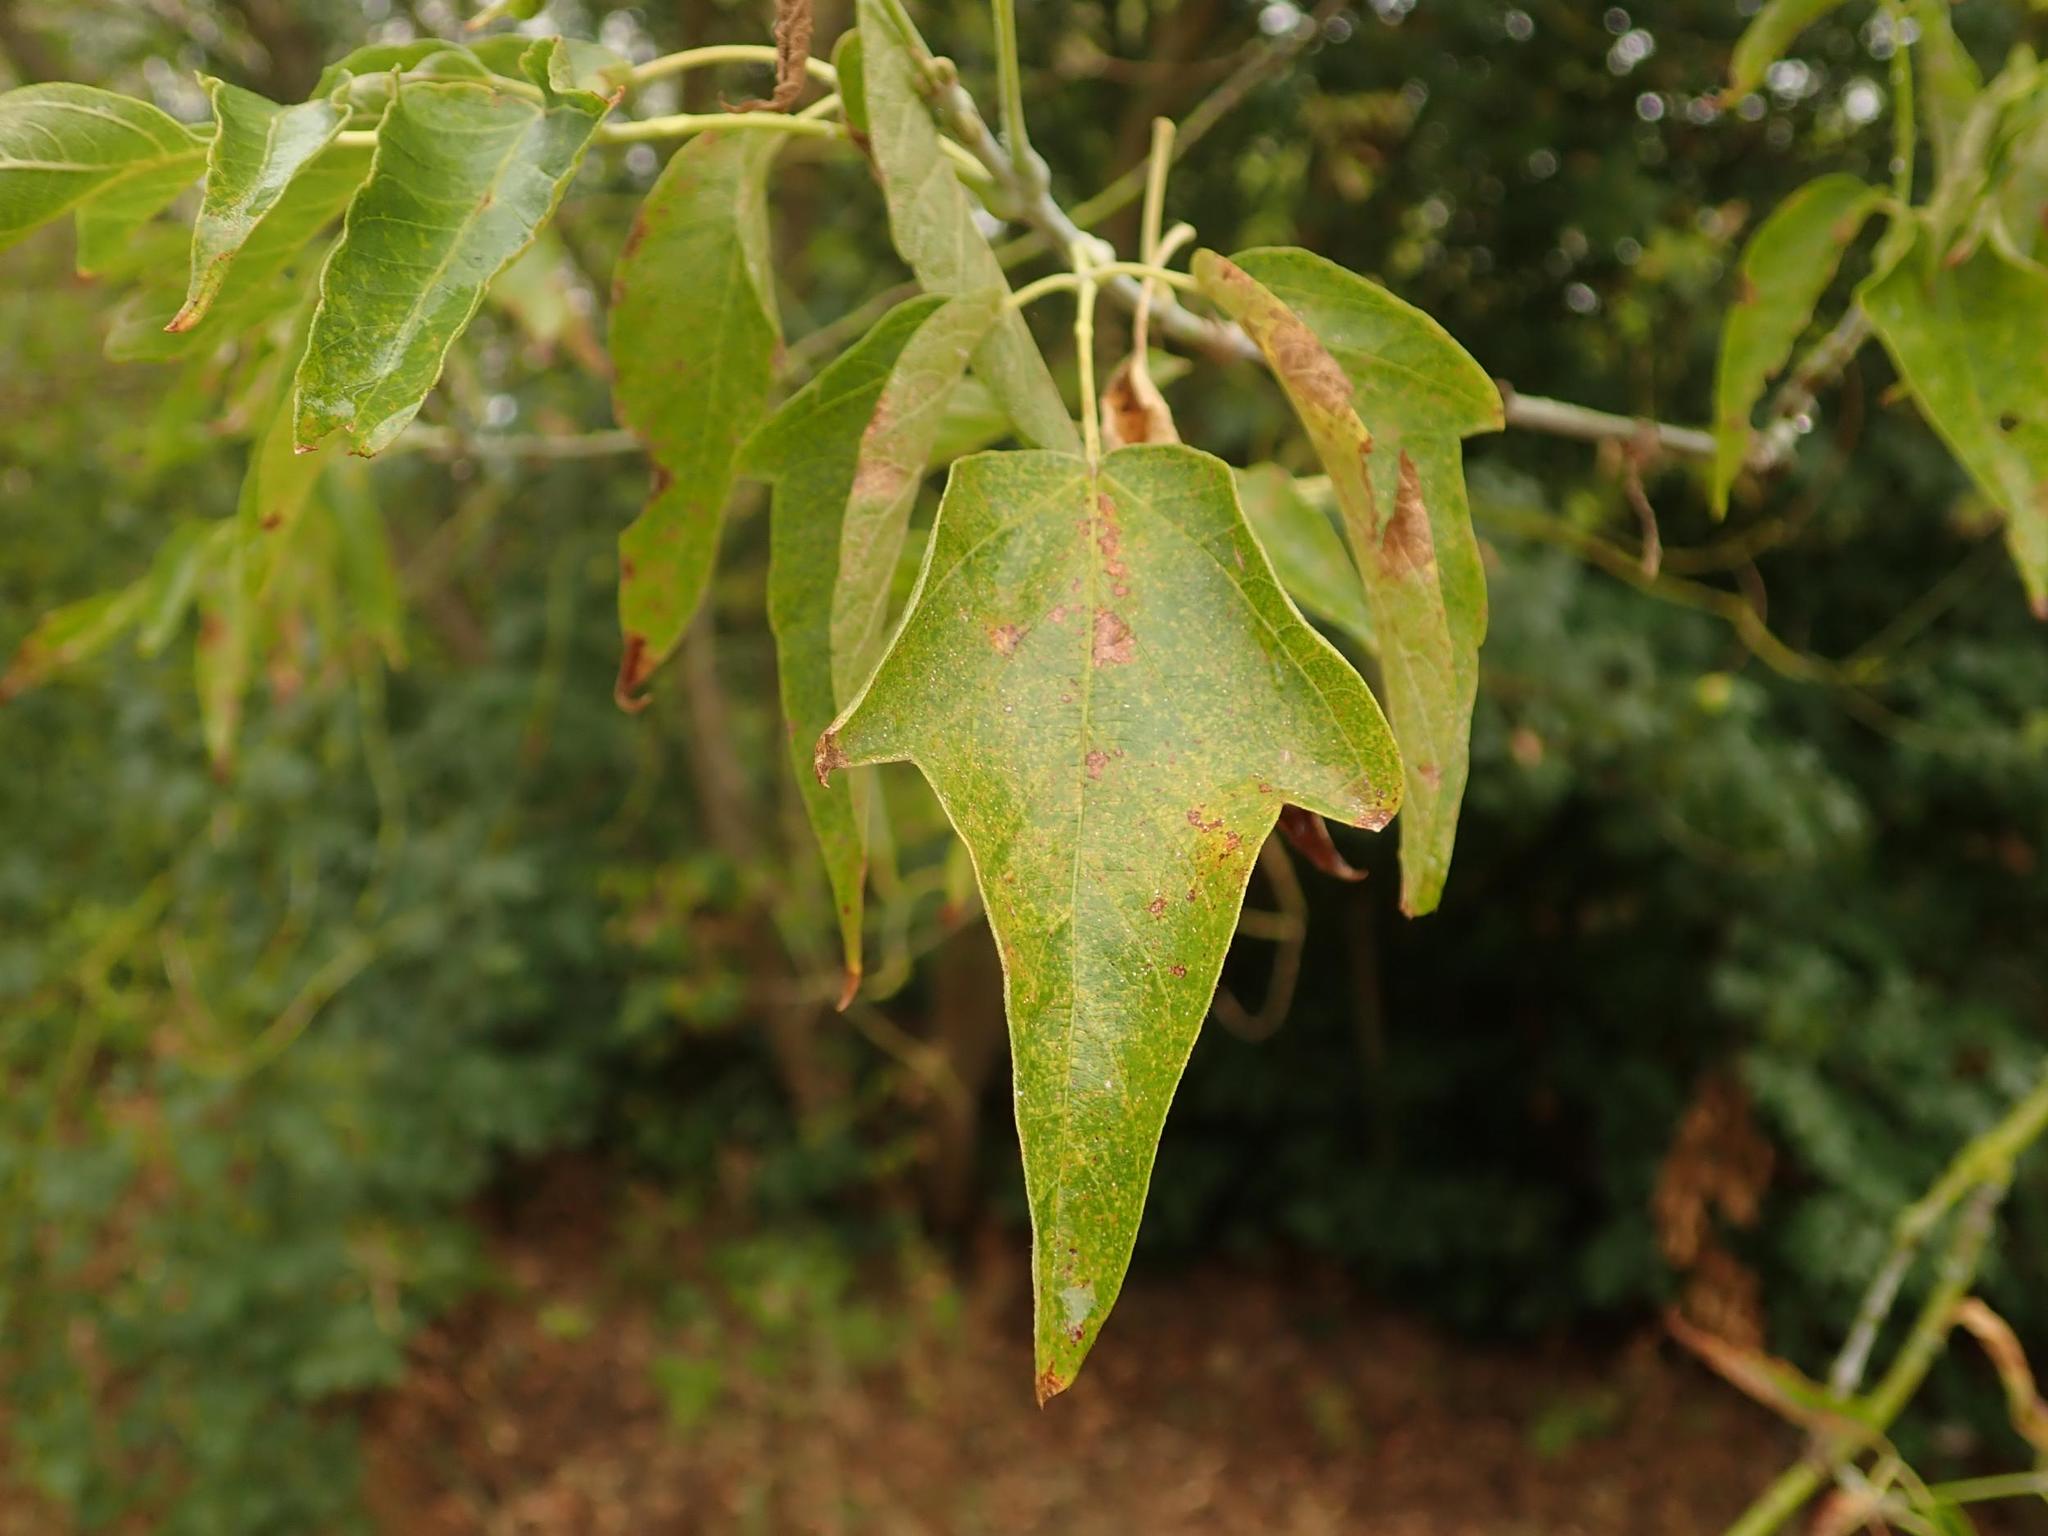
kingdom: Plantae
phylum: Tracheophyta
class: Magnoliopsida
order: Sapindales
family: Sapindaceae
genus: Acer
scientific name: Acer negundo
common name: Ashleaf maple
